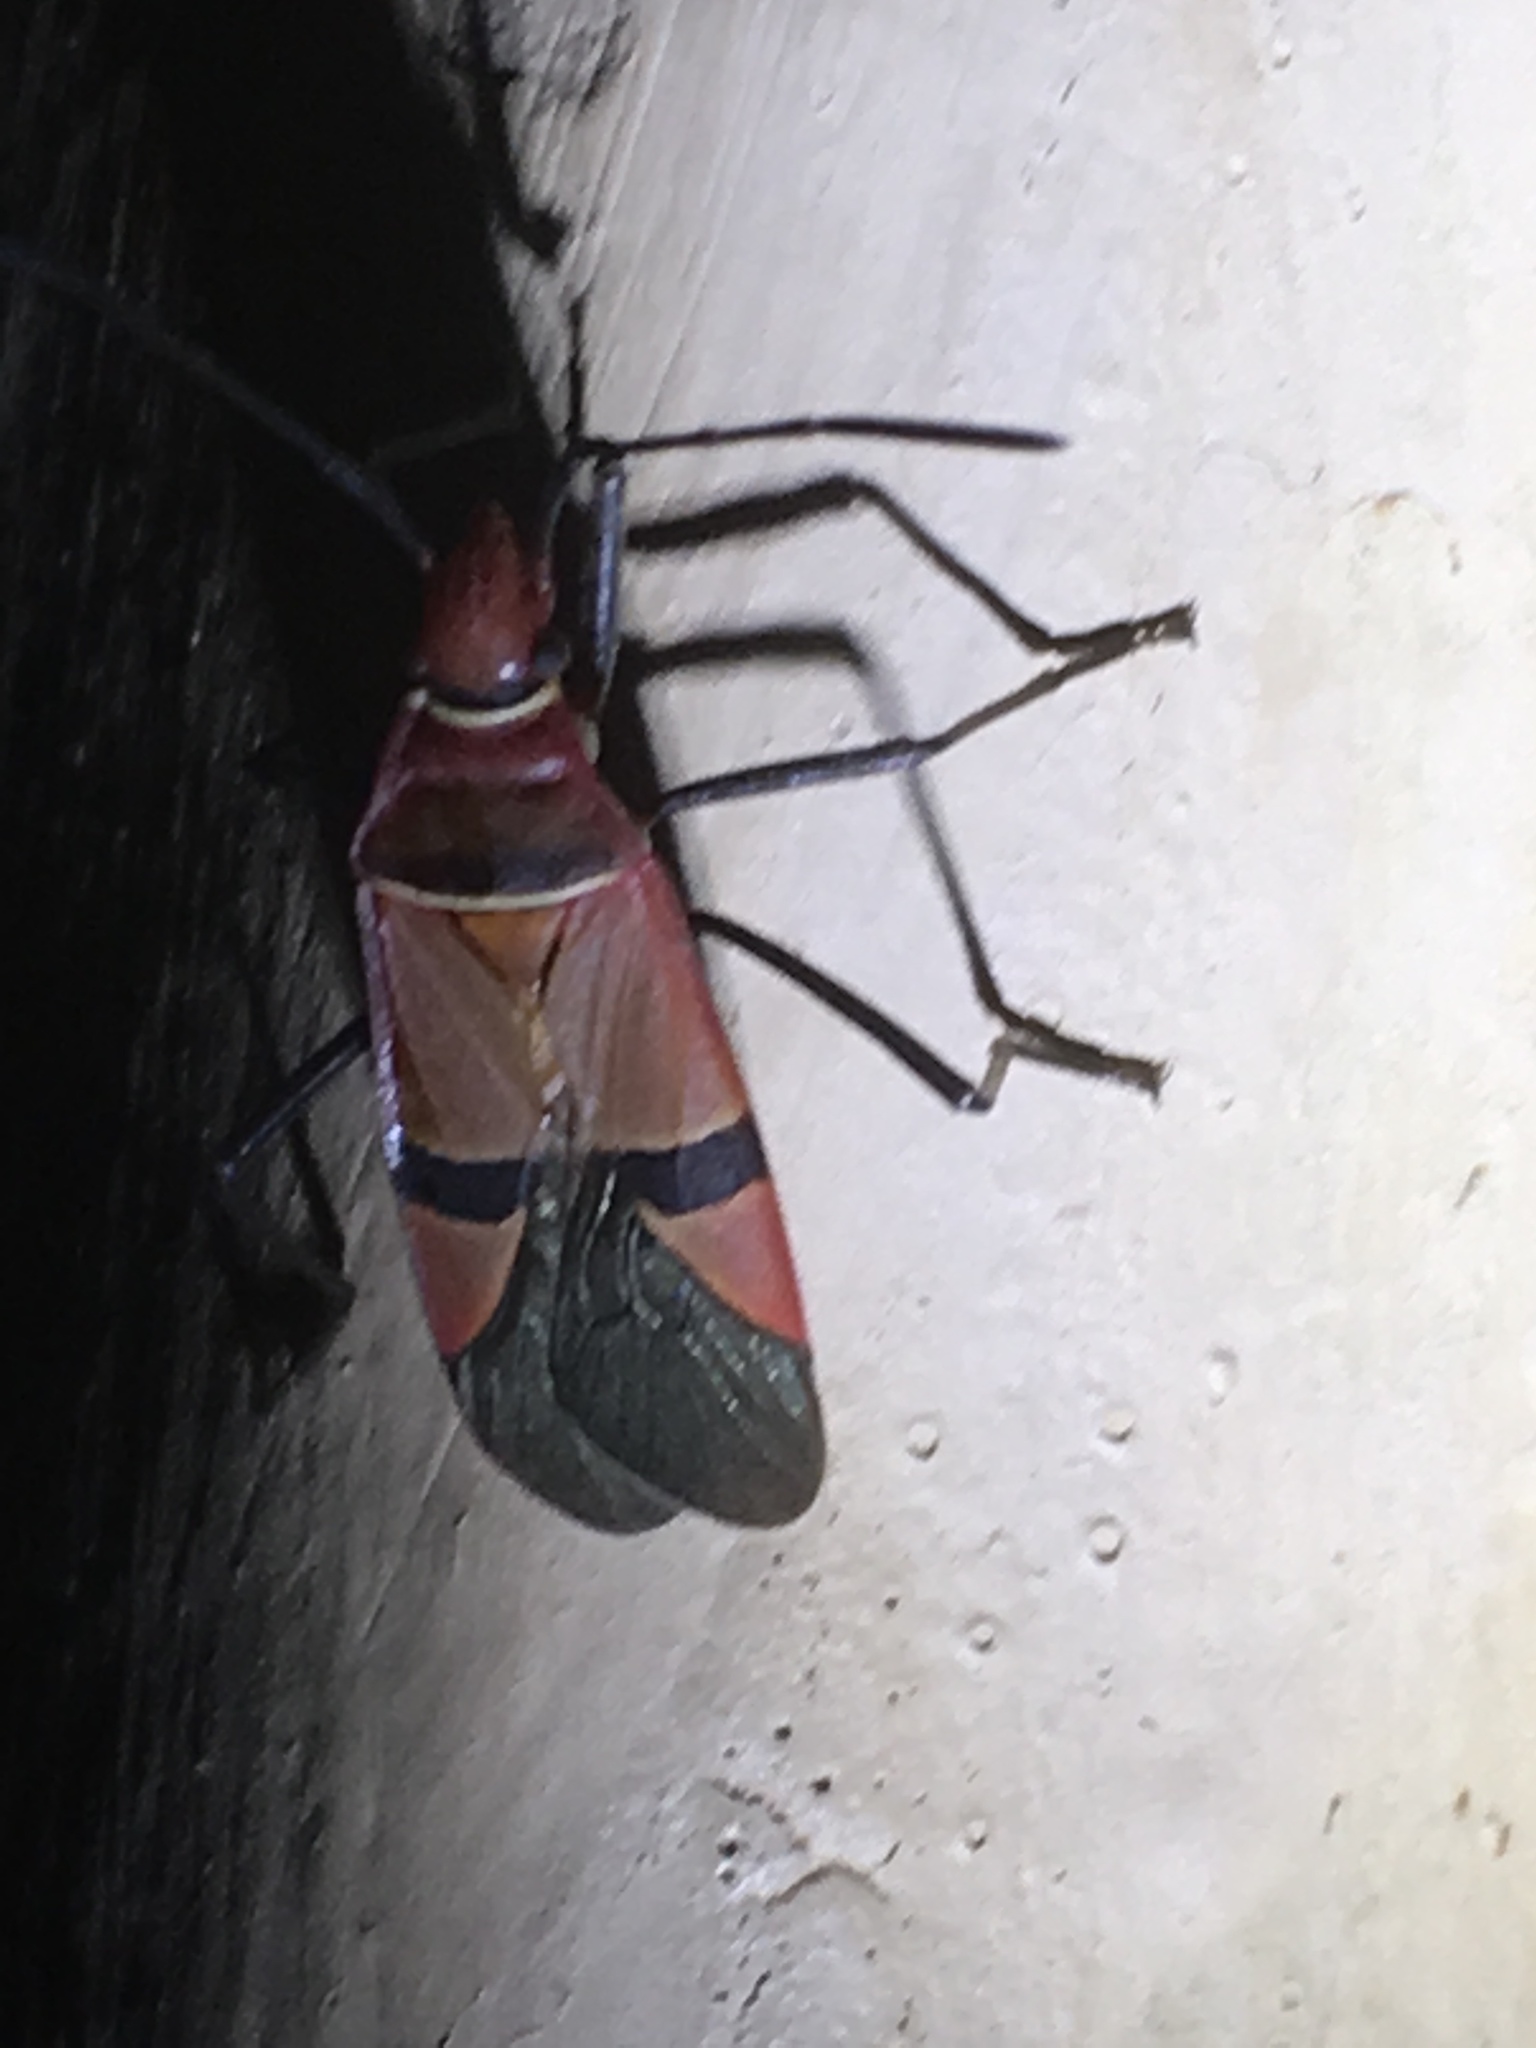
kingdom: Animalia
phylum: Arthropoda
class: Insecta
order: Hemiptera
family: Pyrrhocoridae
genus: Dysdercus
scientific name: Dysdercus fasciatus
